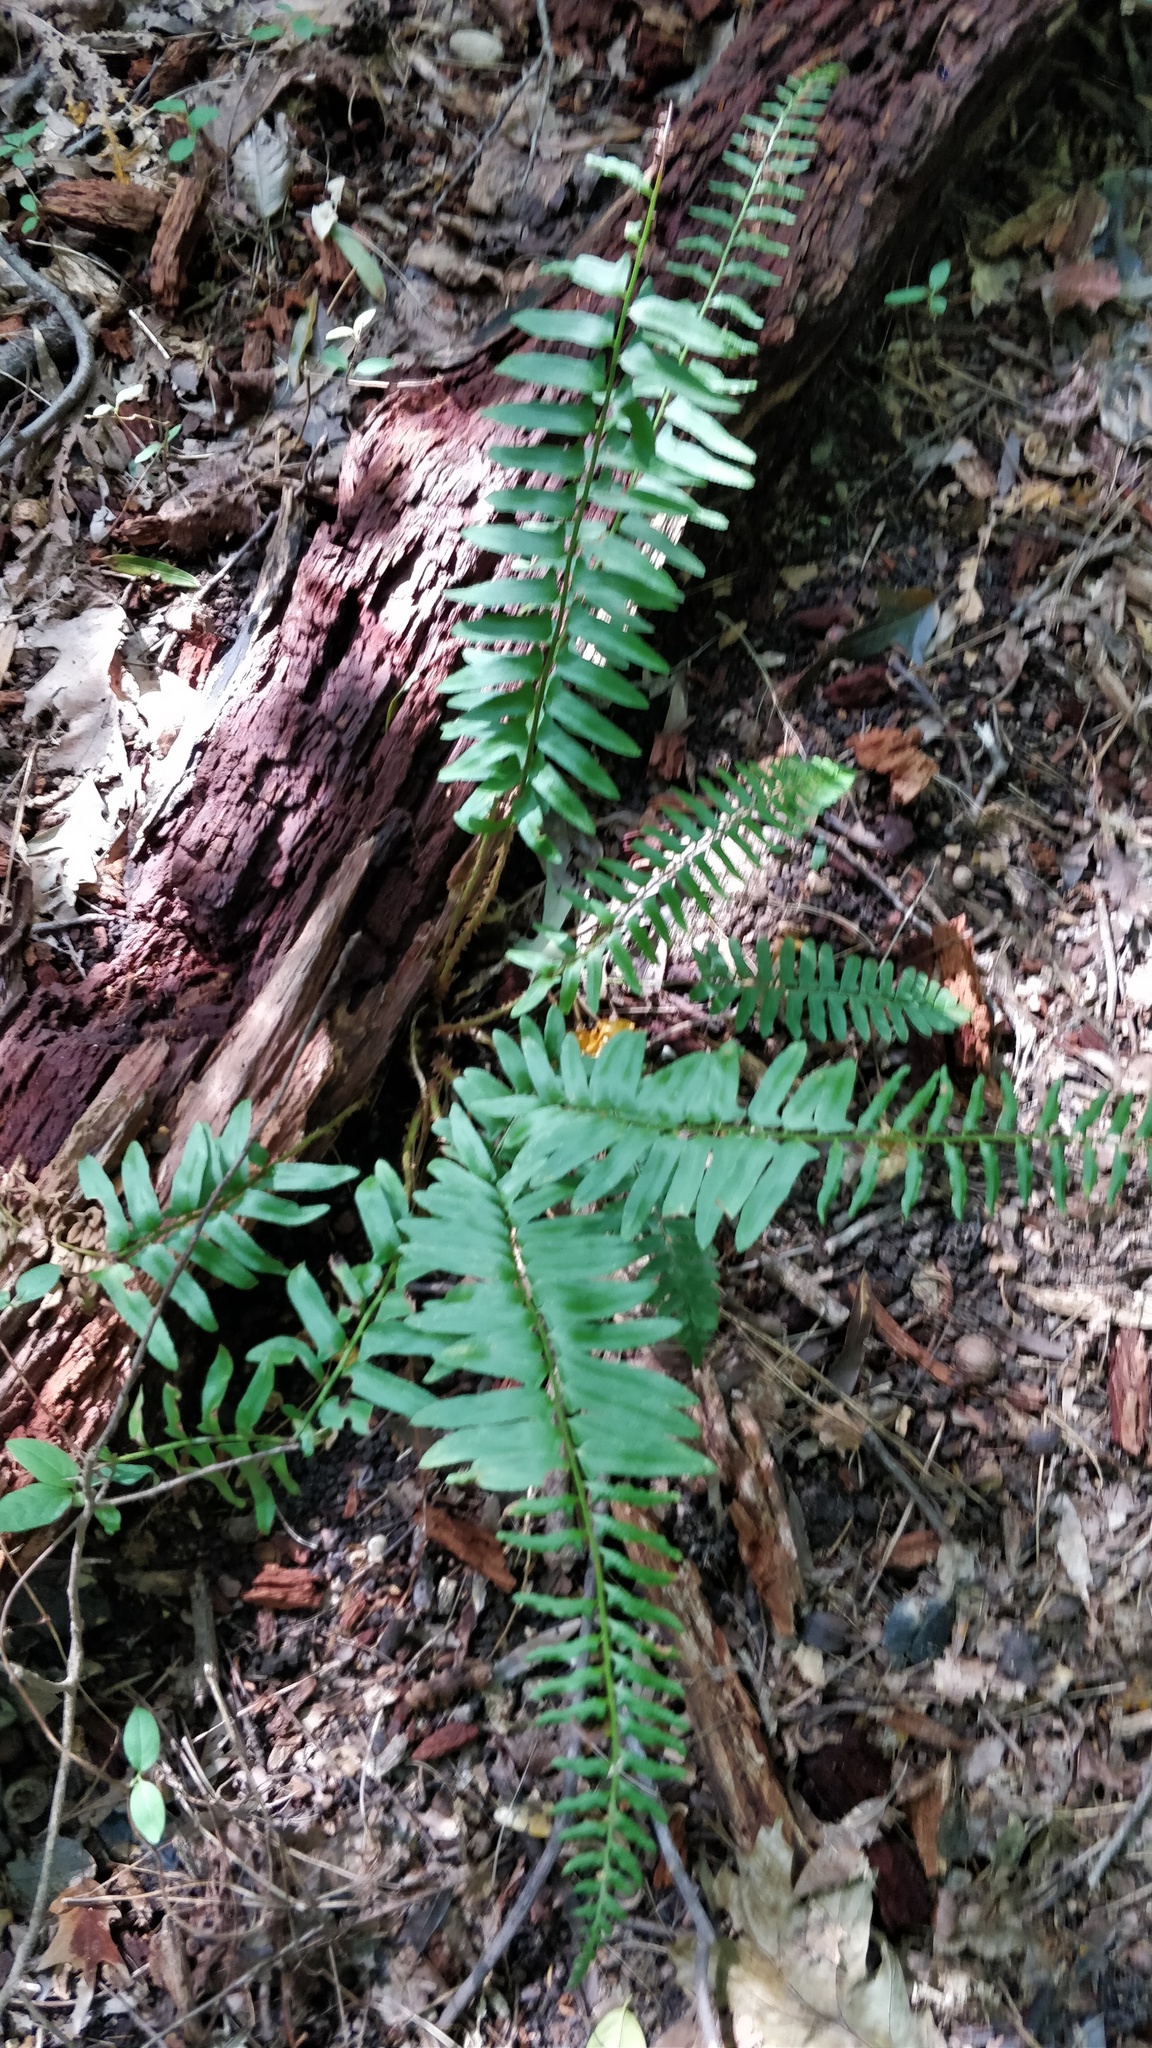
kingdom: Plantae
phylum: Tracheophyta
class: Polypodiopsida
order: Polypodiales
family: Dryopteridaceae
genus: Polystichum
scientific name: Polystichum acrostichoides
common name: Christmas fern
